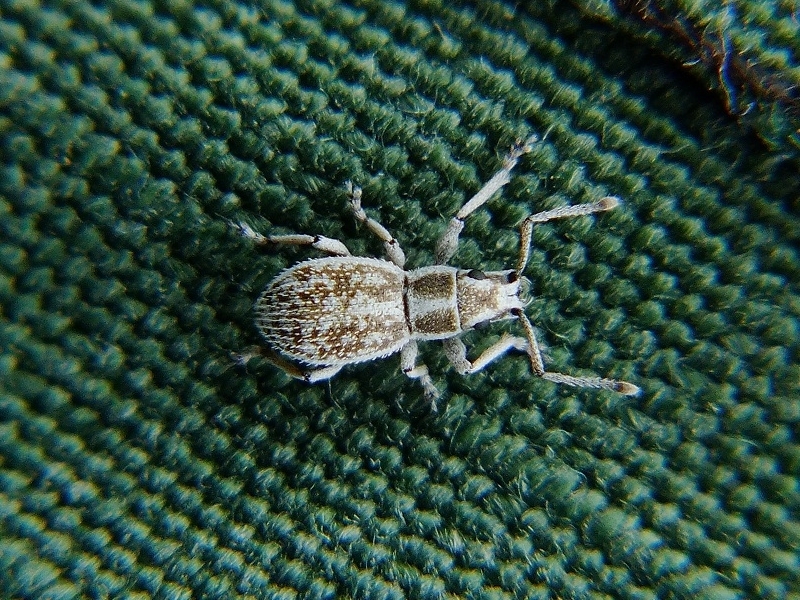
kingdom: Animalia
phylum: Arthropoda
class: Insecta
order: Coleoptera
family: Curculionidae
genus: Ptochus
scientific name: Ptochus porcellus
